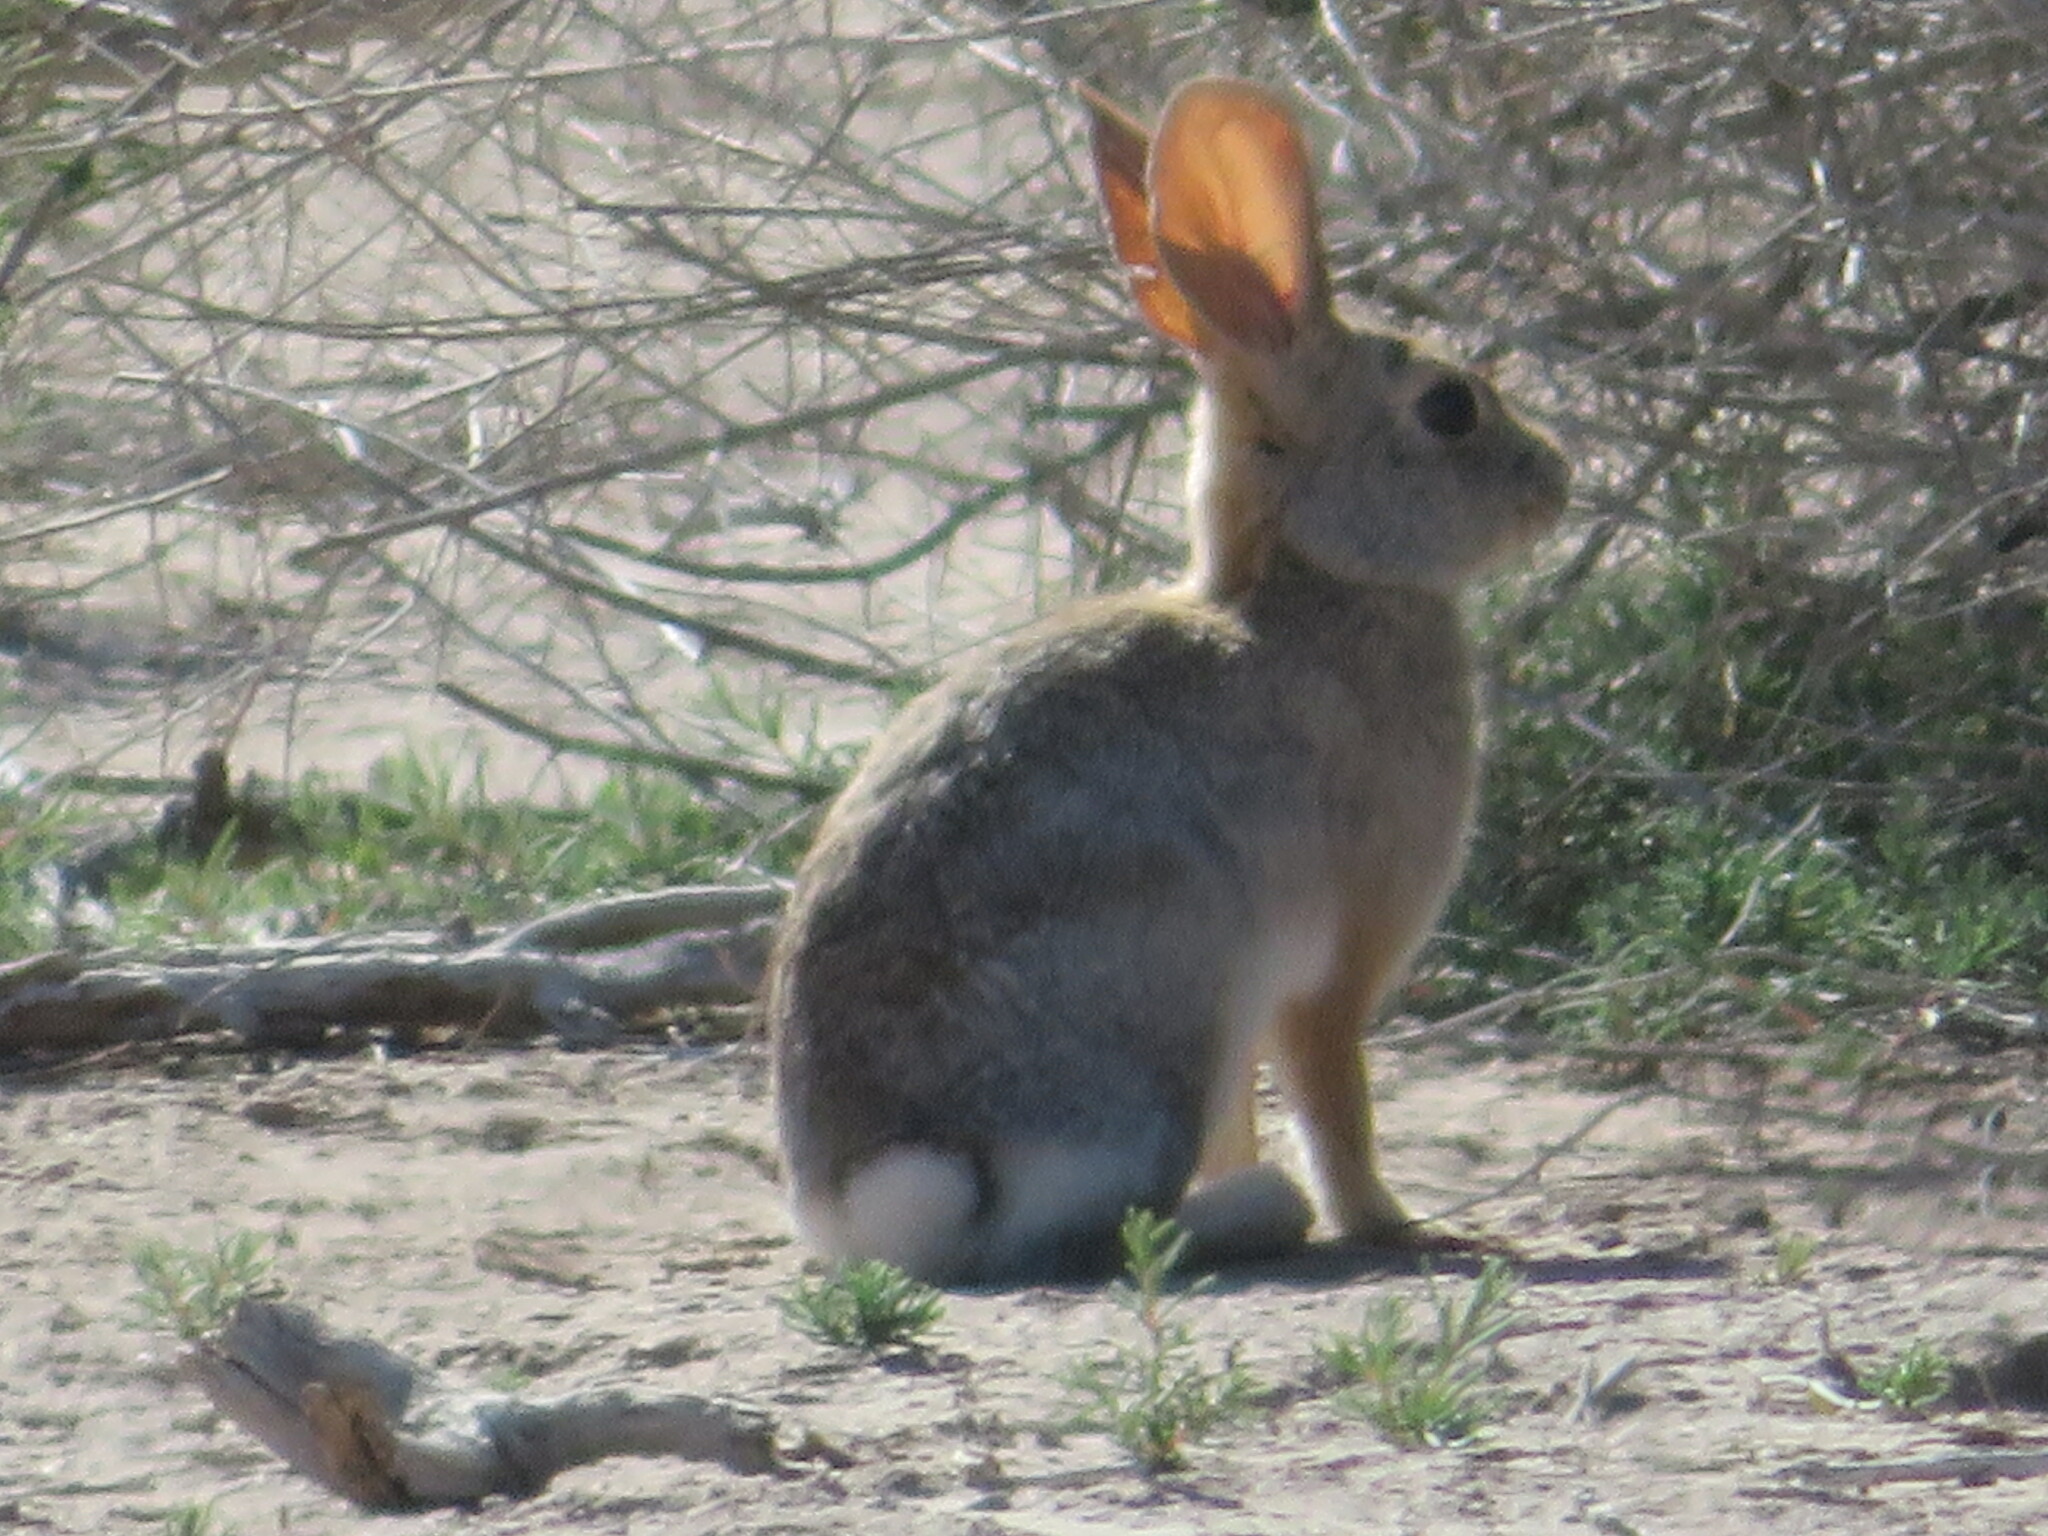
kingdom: Animalia
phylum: Chordata
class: Mammalia
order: Lagomorpha
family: Leporidae
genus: Sylvilagus
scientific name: Sylvilagus audubonii
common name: Desert cottontail
